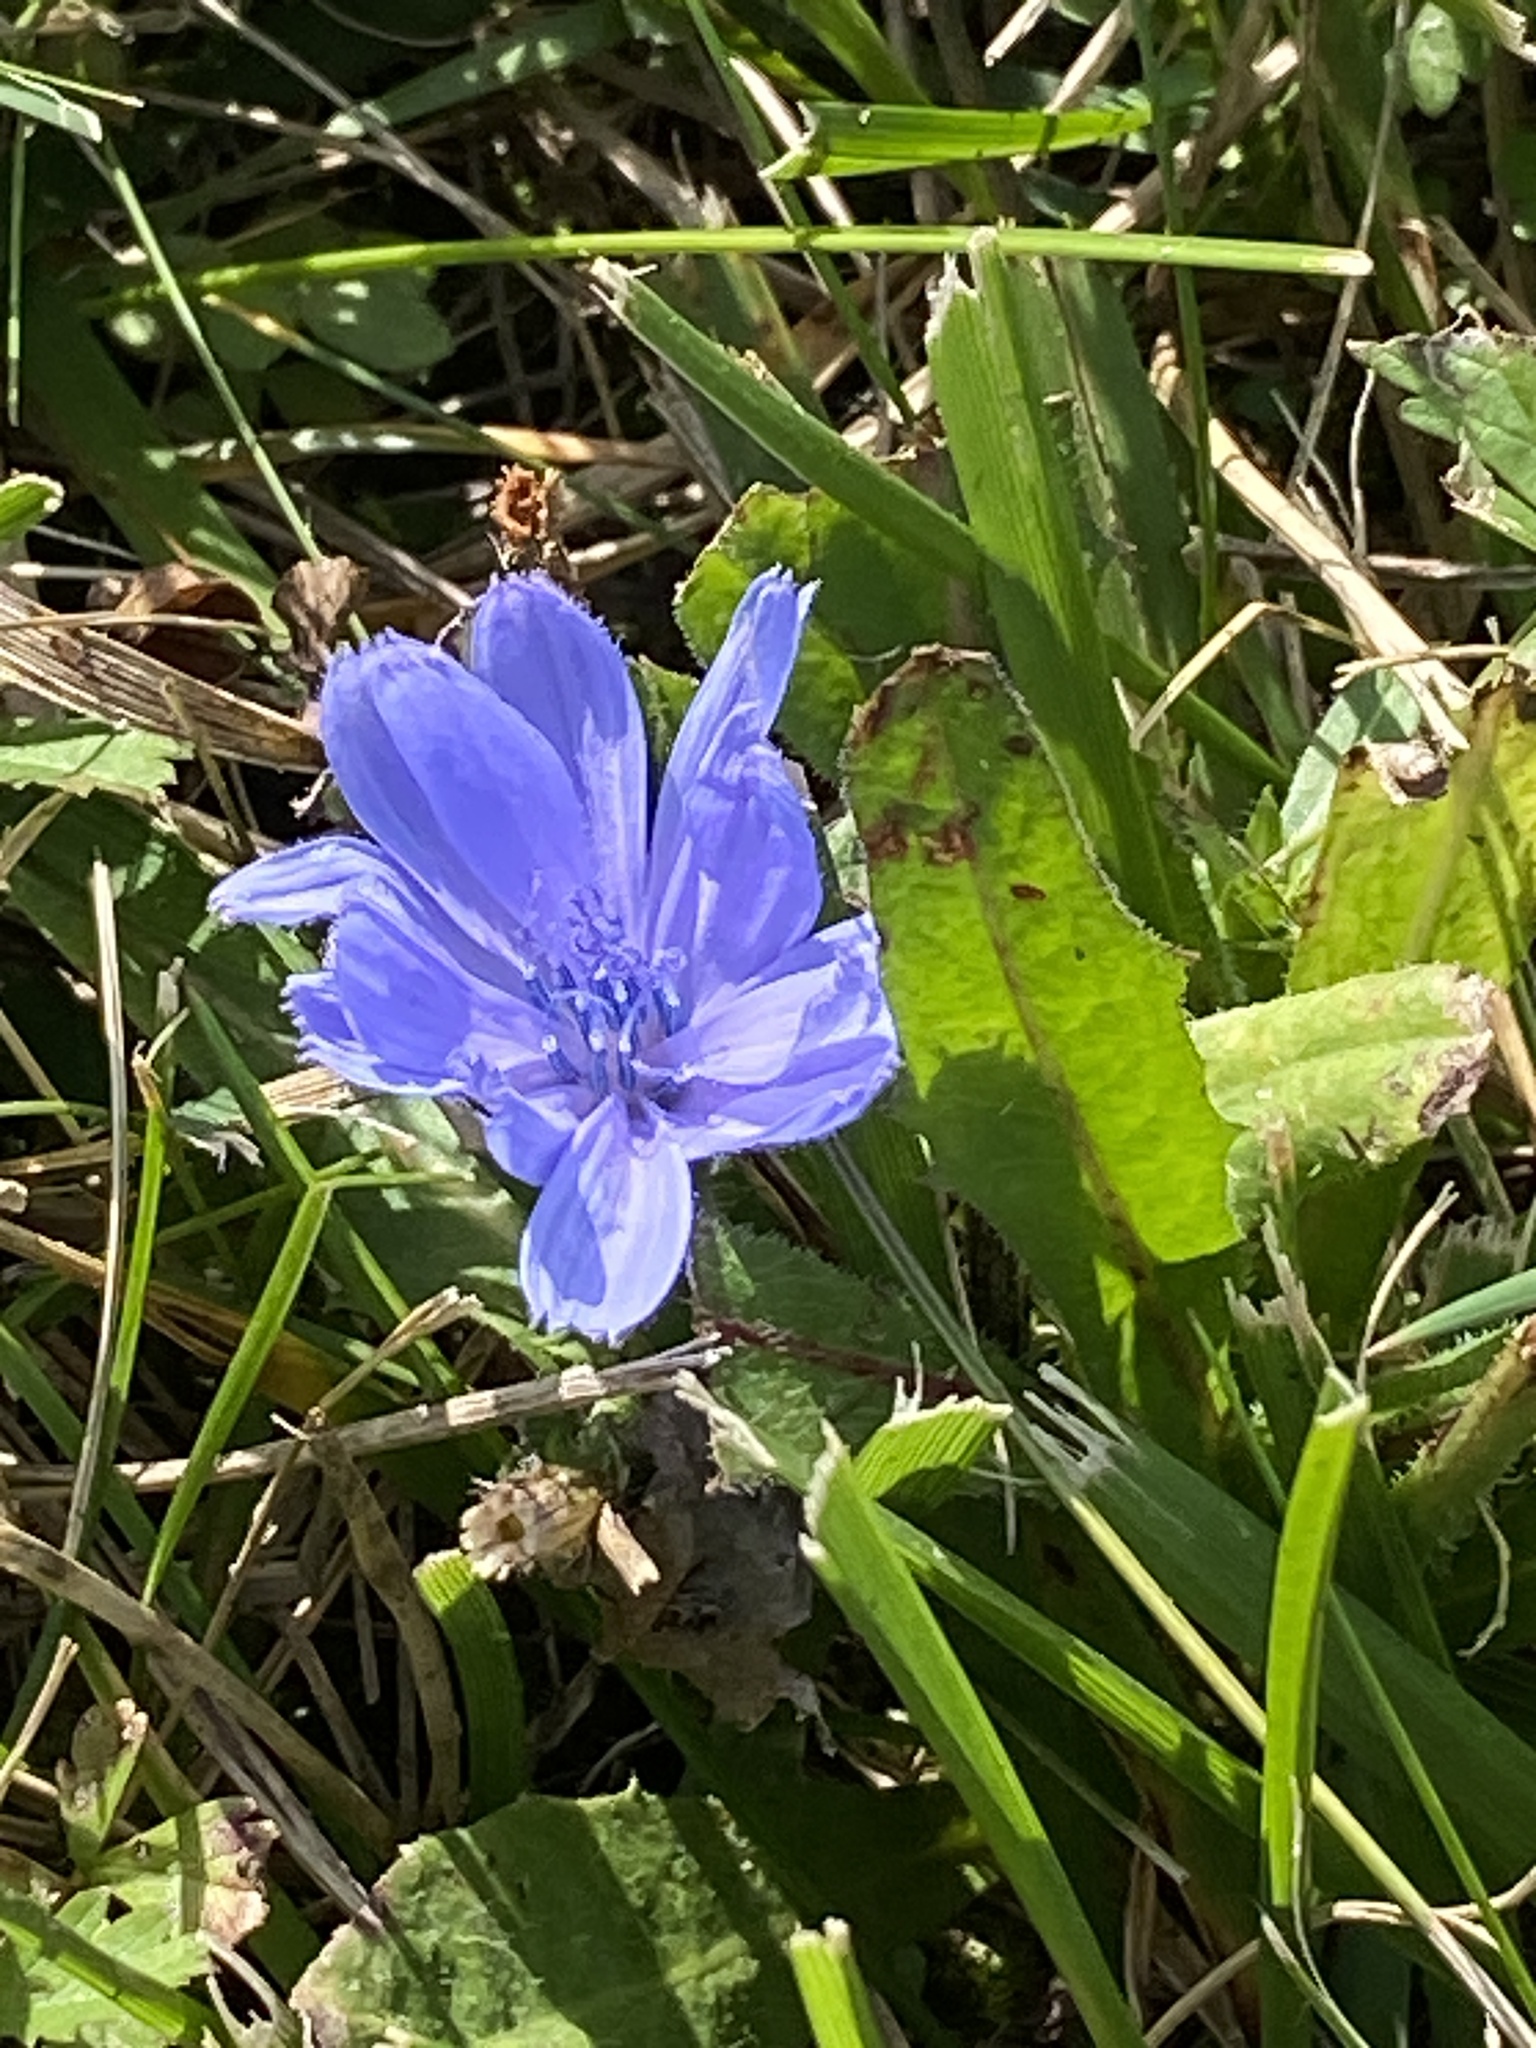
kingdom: Plantae
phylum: Tracheophyta
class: Magnoliopsida
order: Asterales
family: Asteraceae
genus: Cichorium
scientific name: Cichorium intybus
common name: Chicory
